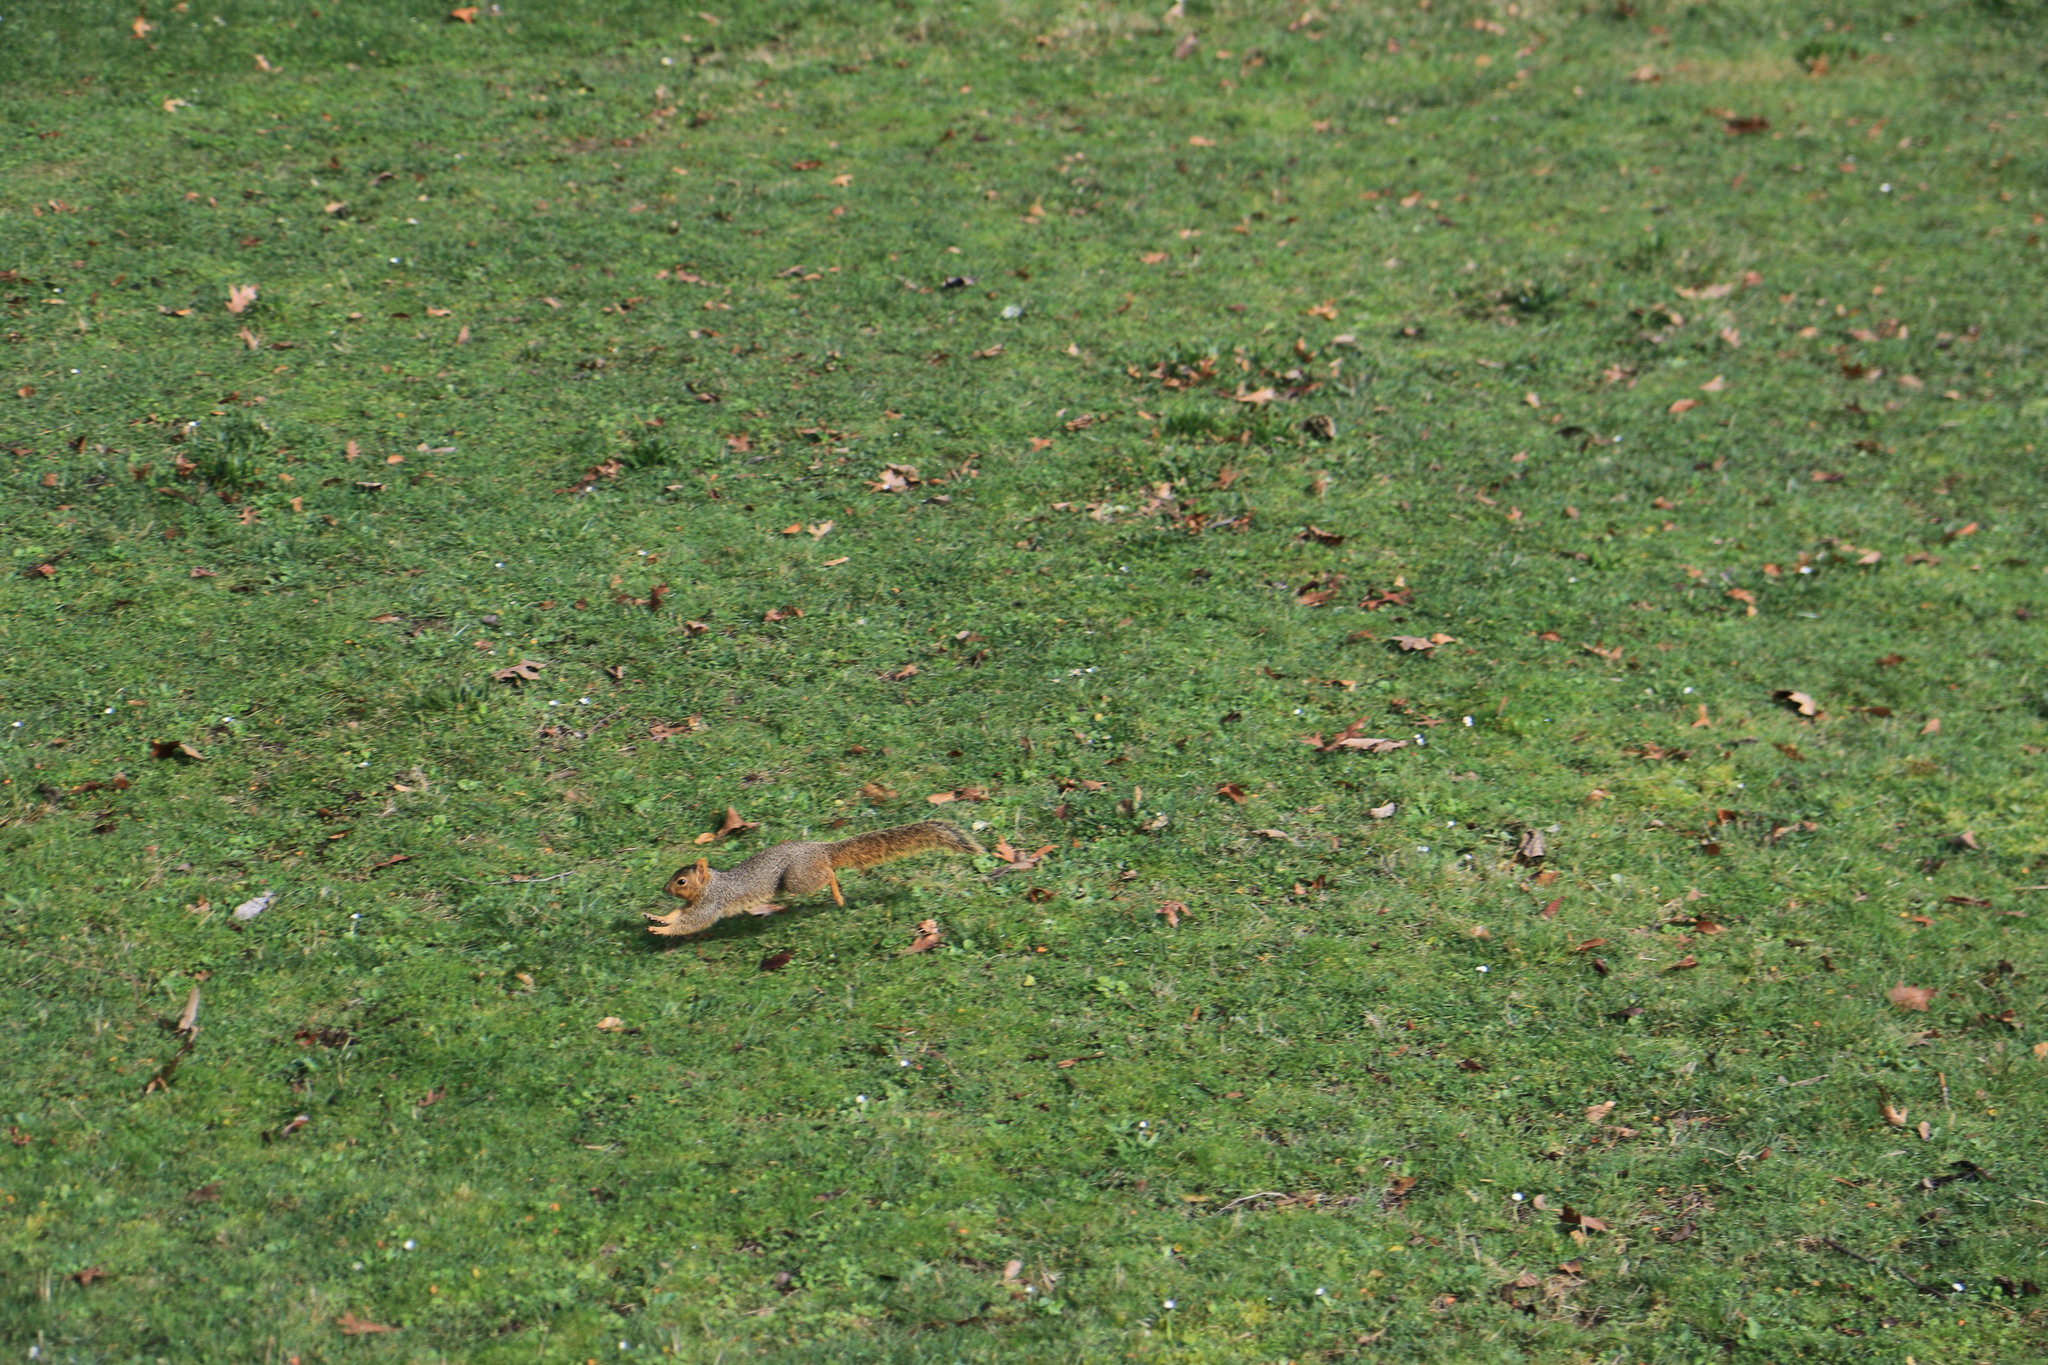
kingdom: Animalia
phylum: Chordata
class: Mammalia
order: Rodentia
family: Sciuridae
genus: Sciurus
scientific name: Sciurus niger
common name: Fox squirrel
